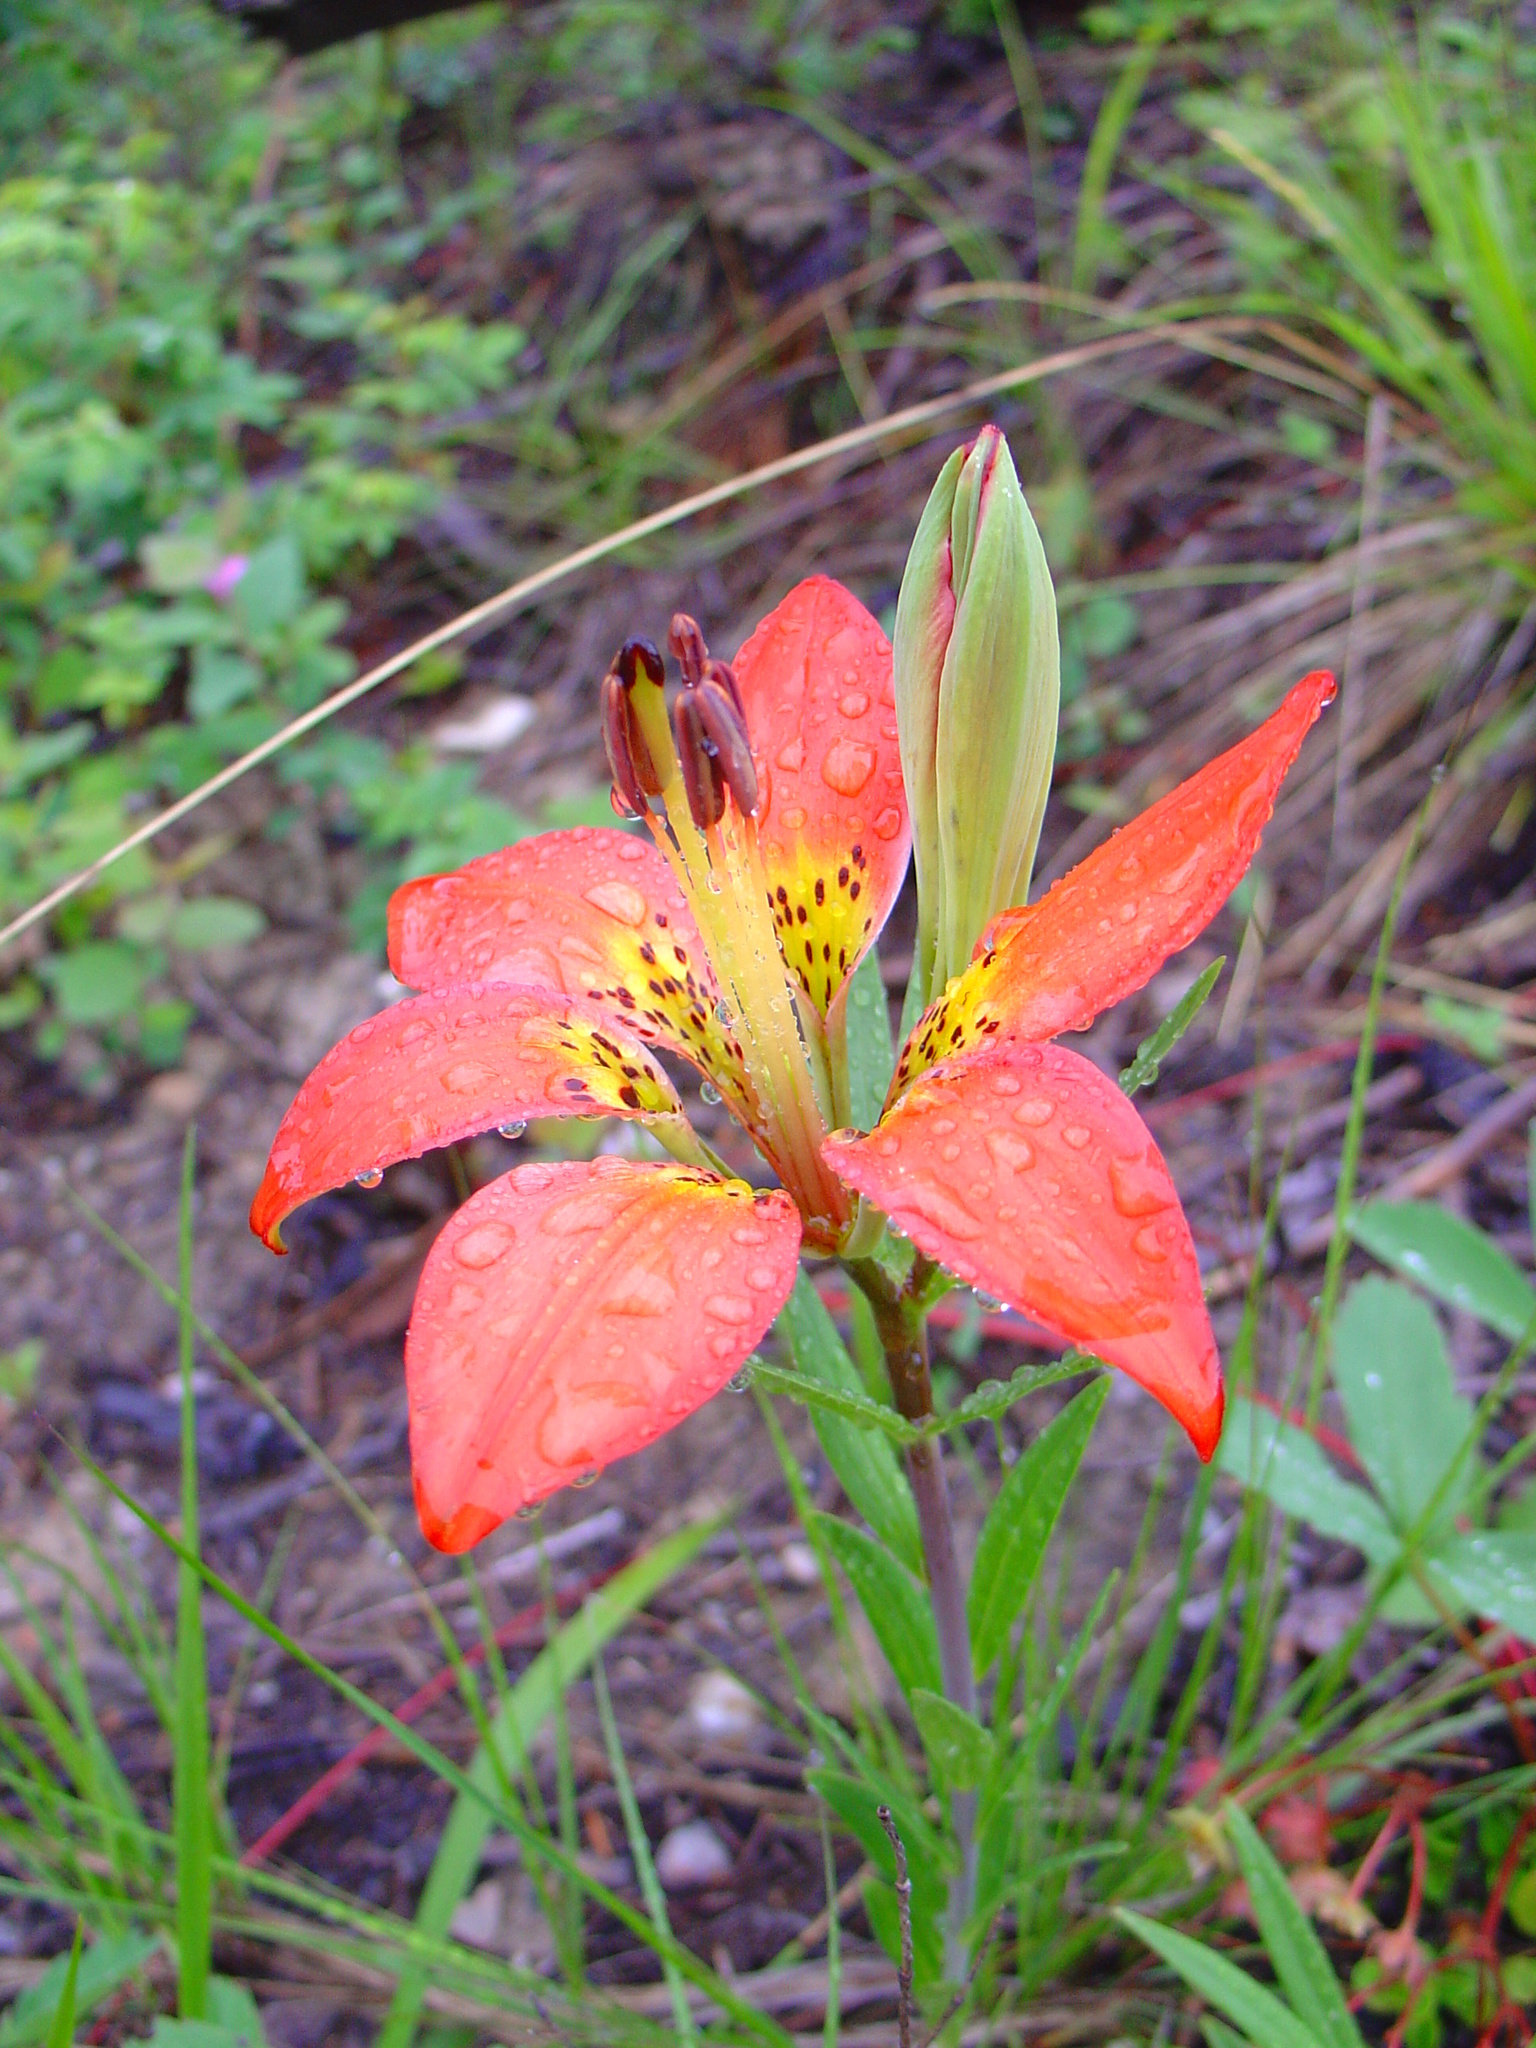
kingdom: Plantae
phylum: Tracheophyta
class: Liliopsida
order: Liliales
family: Liliaceae
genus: Lilium
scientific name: Lilium philadelphicum
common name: Red lily
